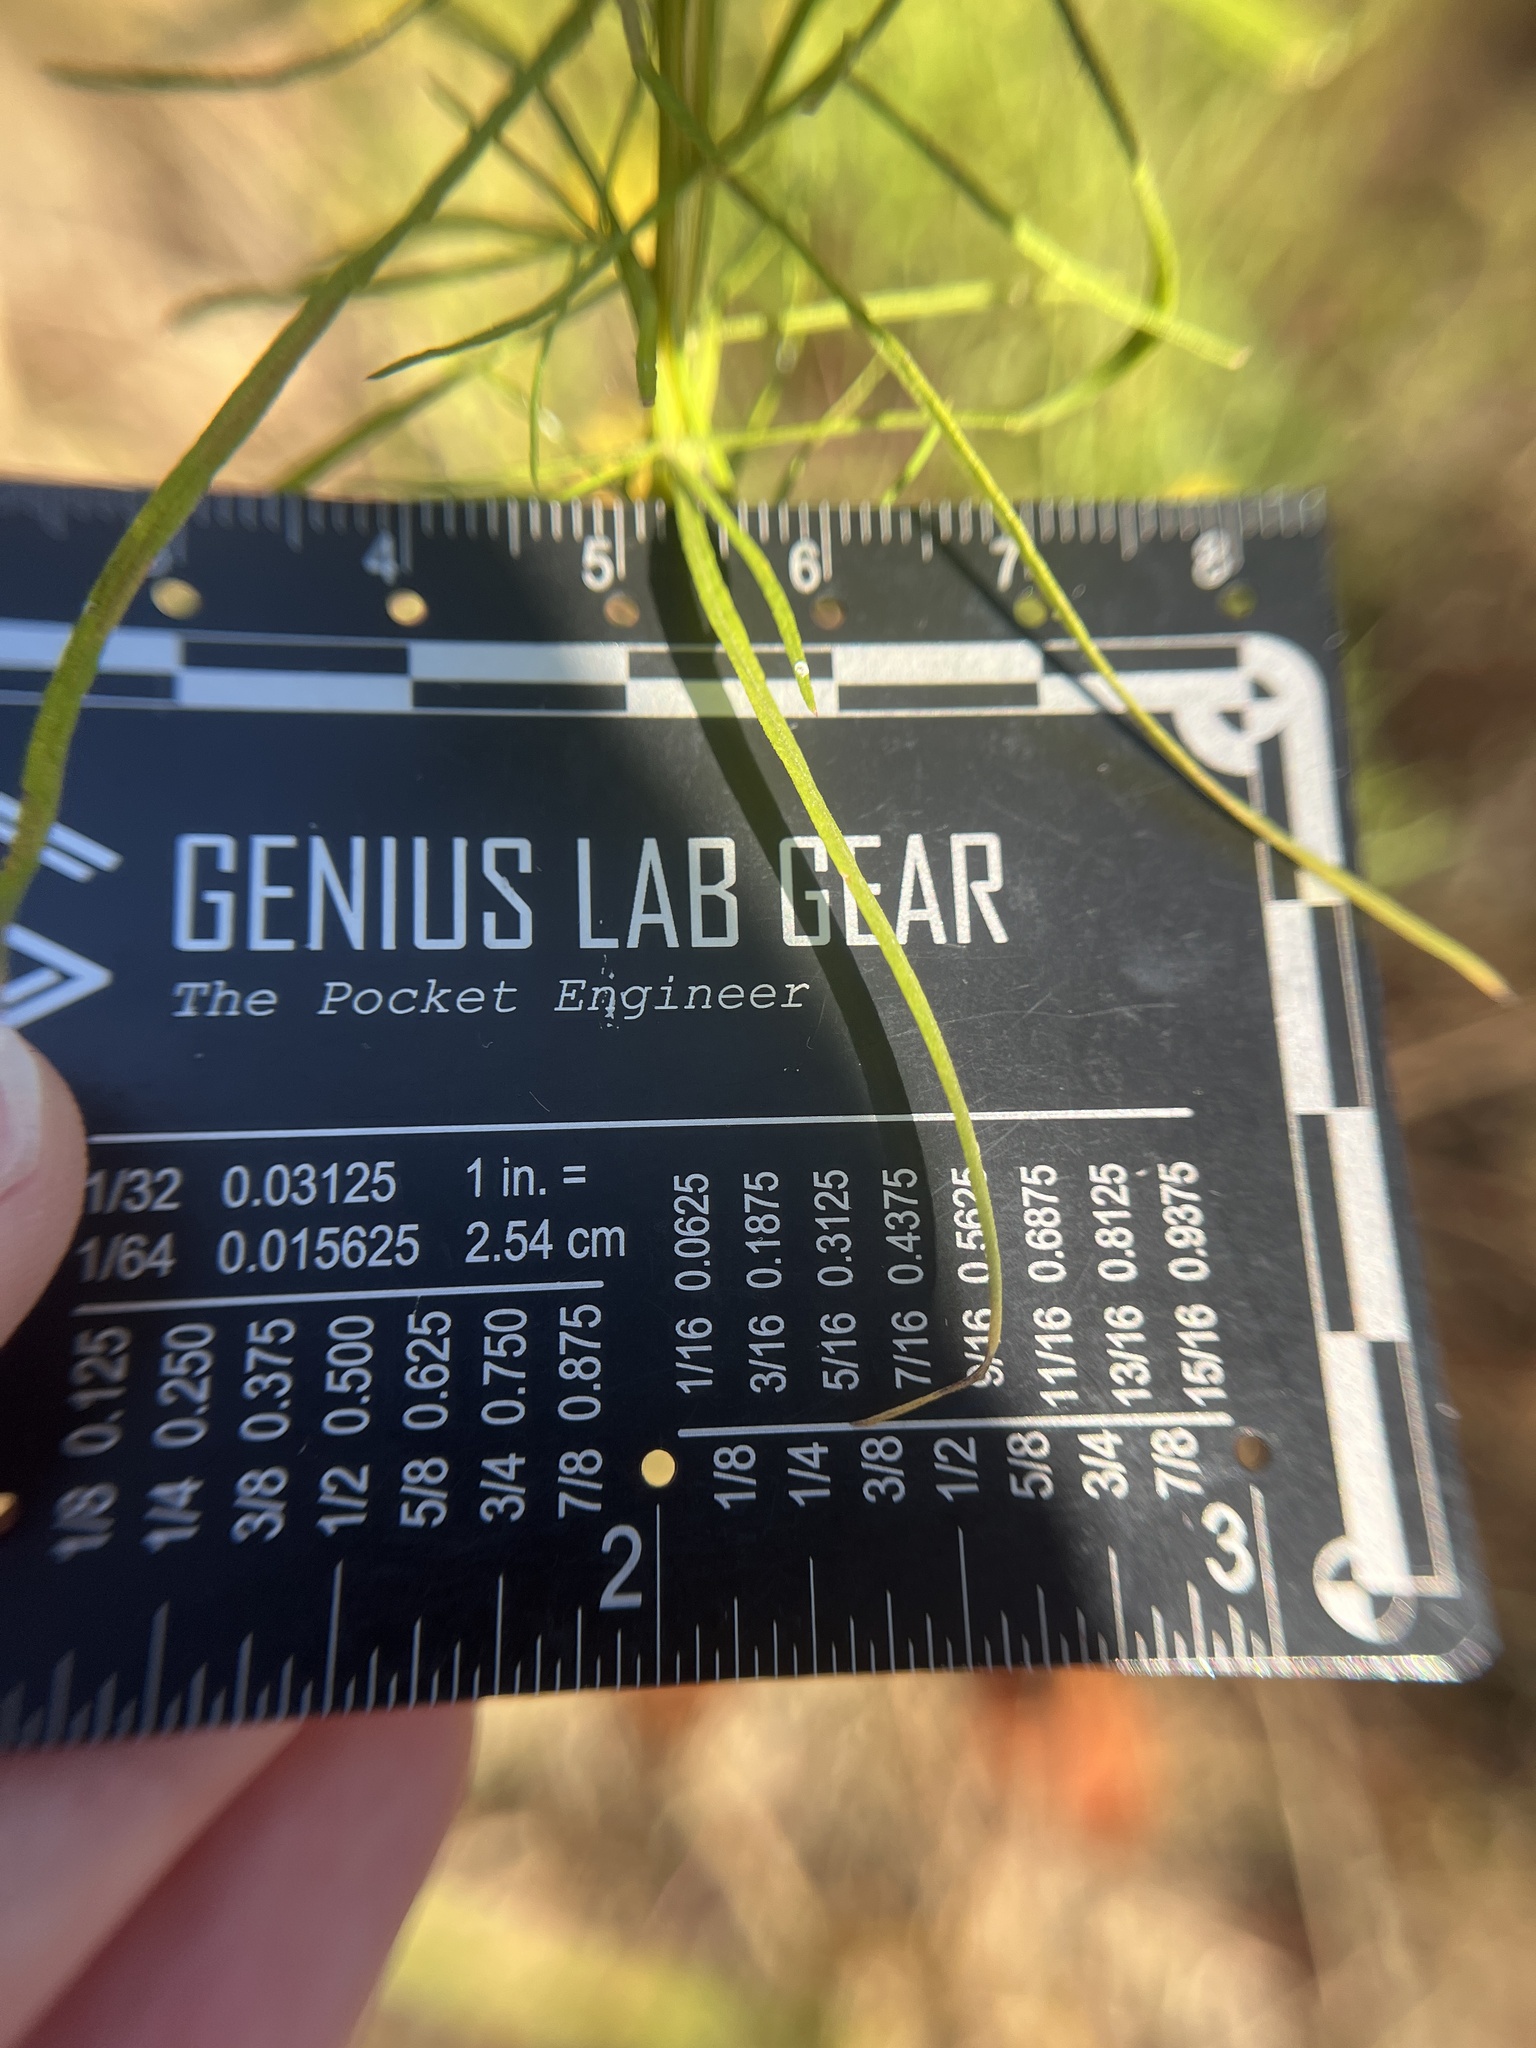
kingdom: Plantae
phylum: Tracheophyta
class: Magnoliopsida
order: Asterales
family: Asteraceae
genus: Euthamia
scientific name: Euthamia caroliniana
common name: Coastal plain goldentop
